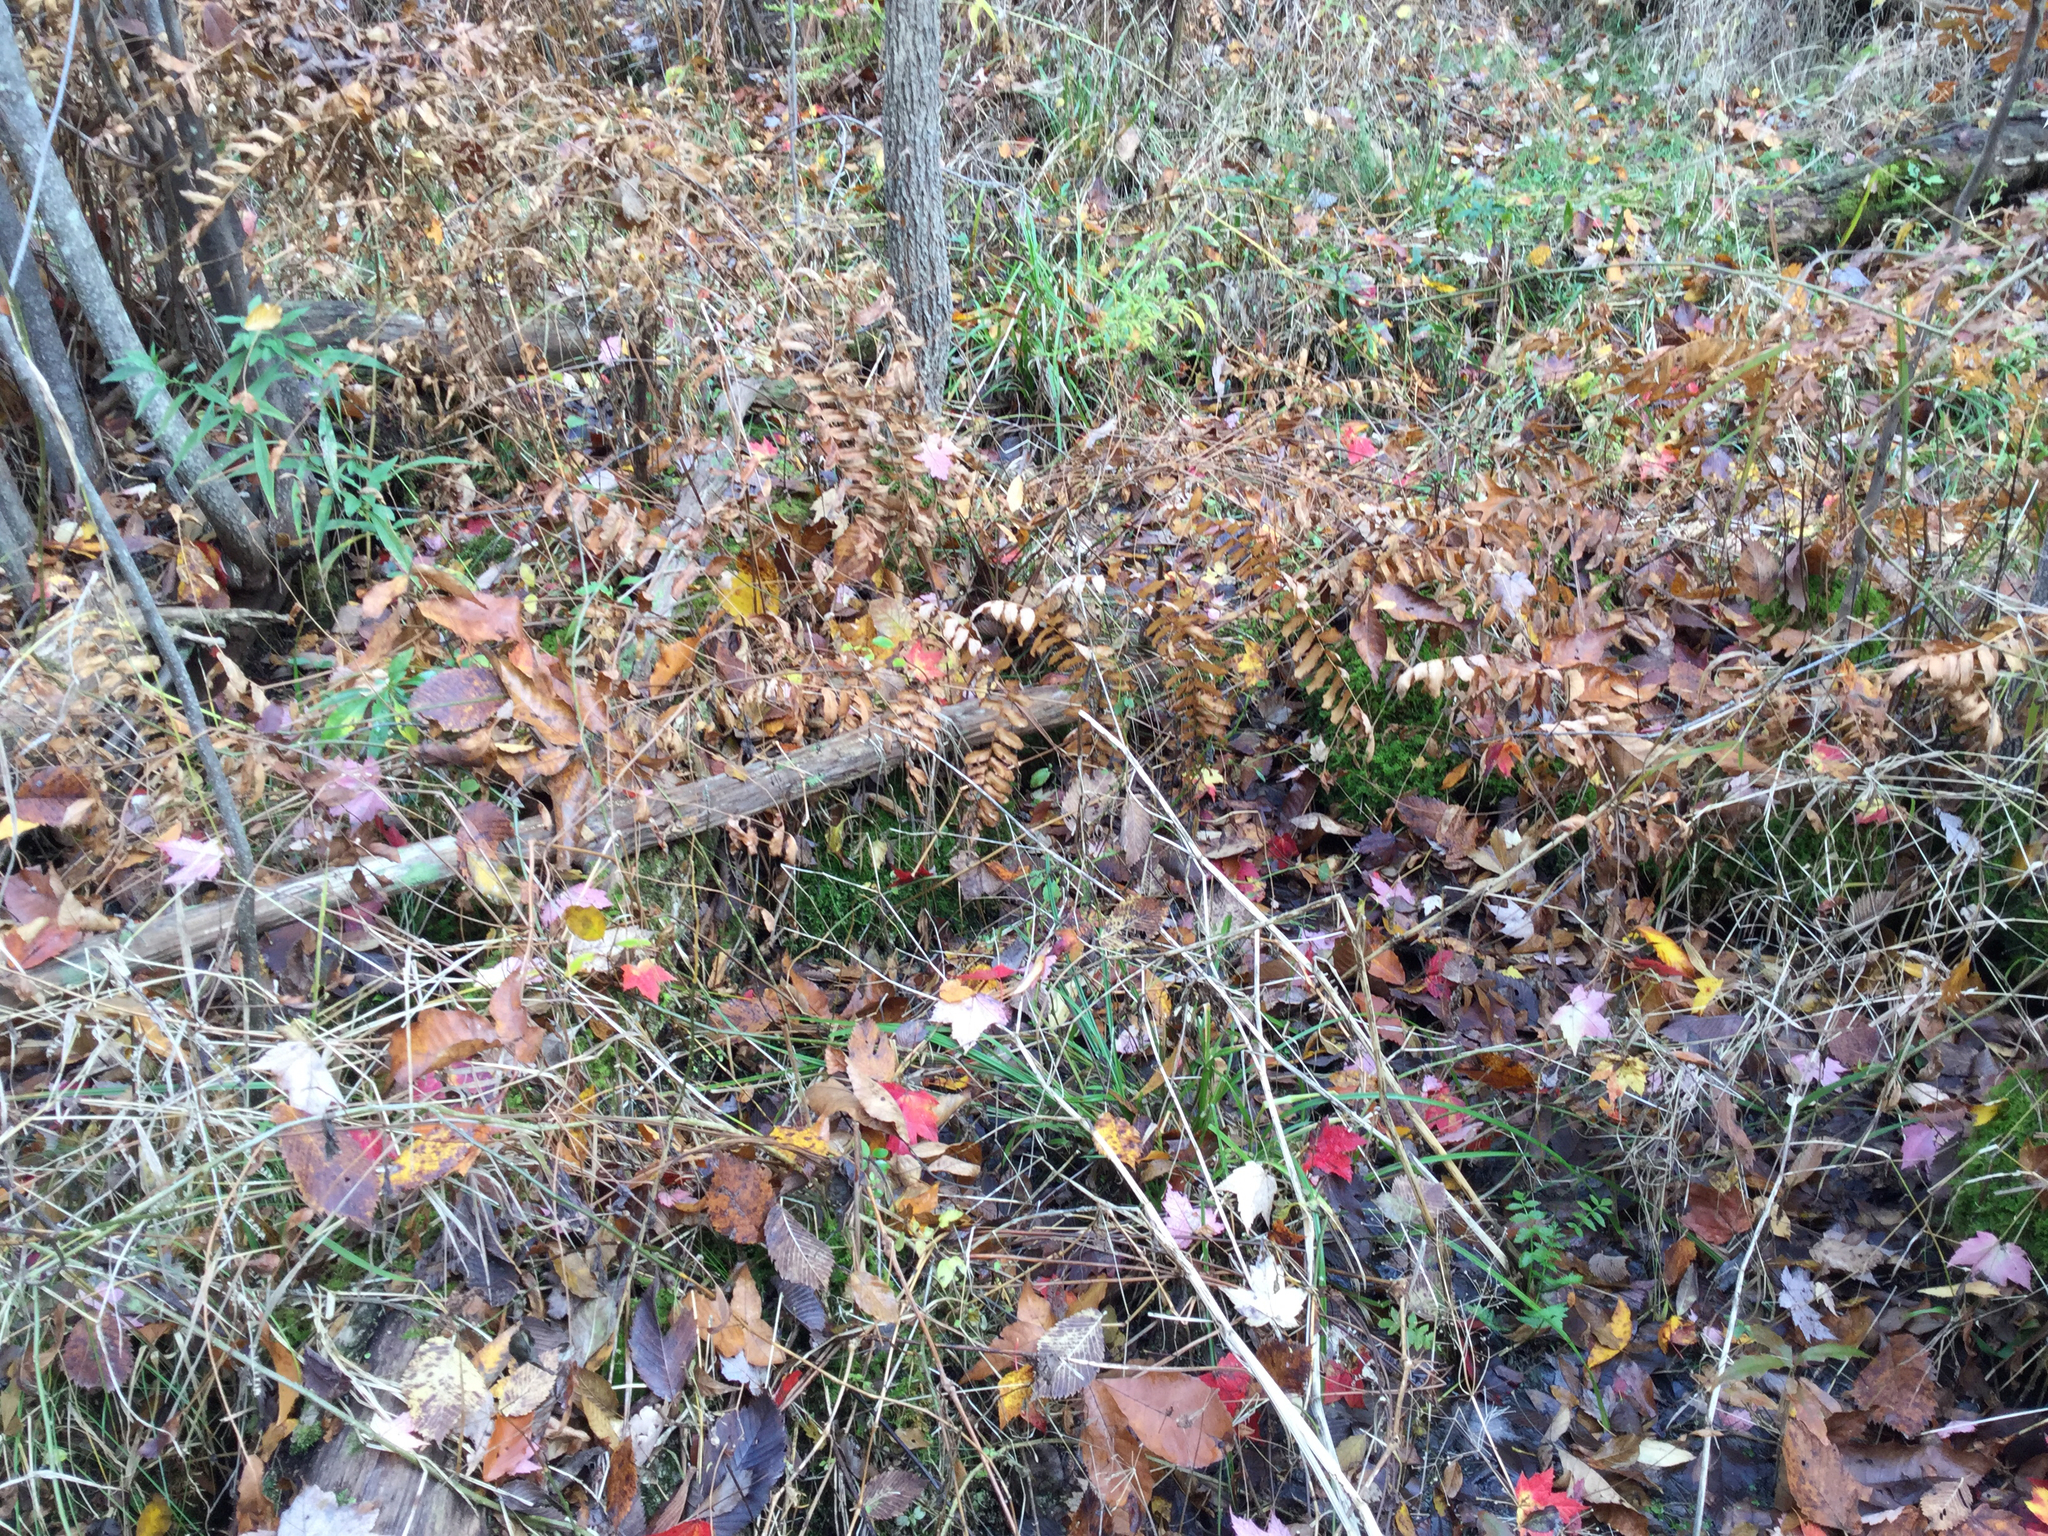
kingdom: Plantae
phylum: Tracheophyta
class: Polypodiopsida
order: Osmundales
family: Osmundaceae
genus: Osmunda
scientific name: Osmunda spectabilis
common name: American royal fern
